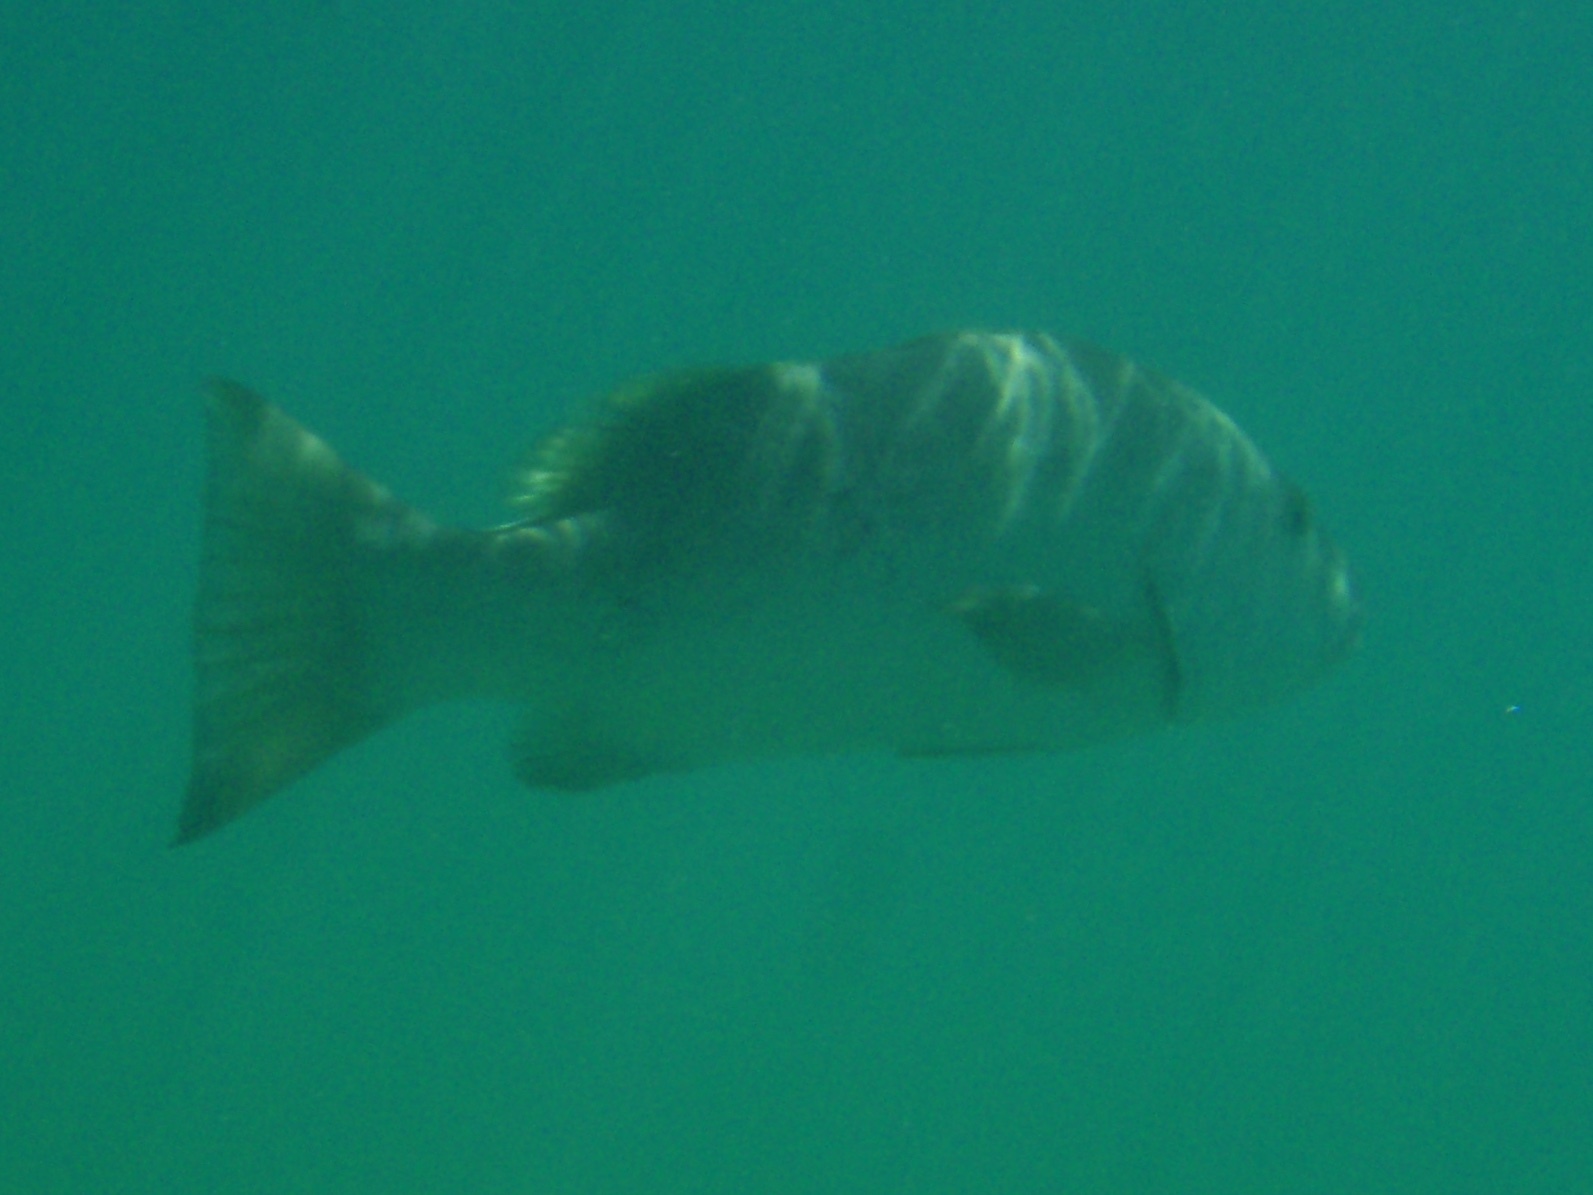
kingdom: Animalia
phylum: Chordata
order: Perciformes
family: Lutjanidae
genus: Lutjanus
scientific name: Lutjanus jocu
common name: Dog snapper
